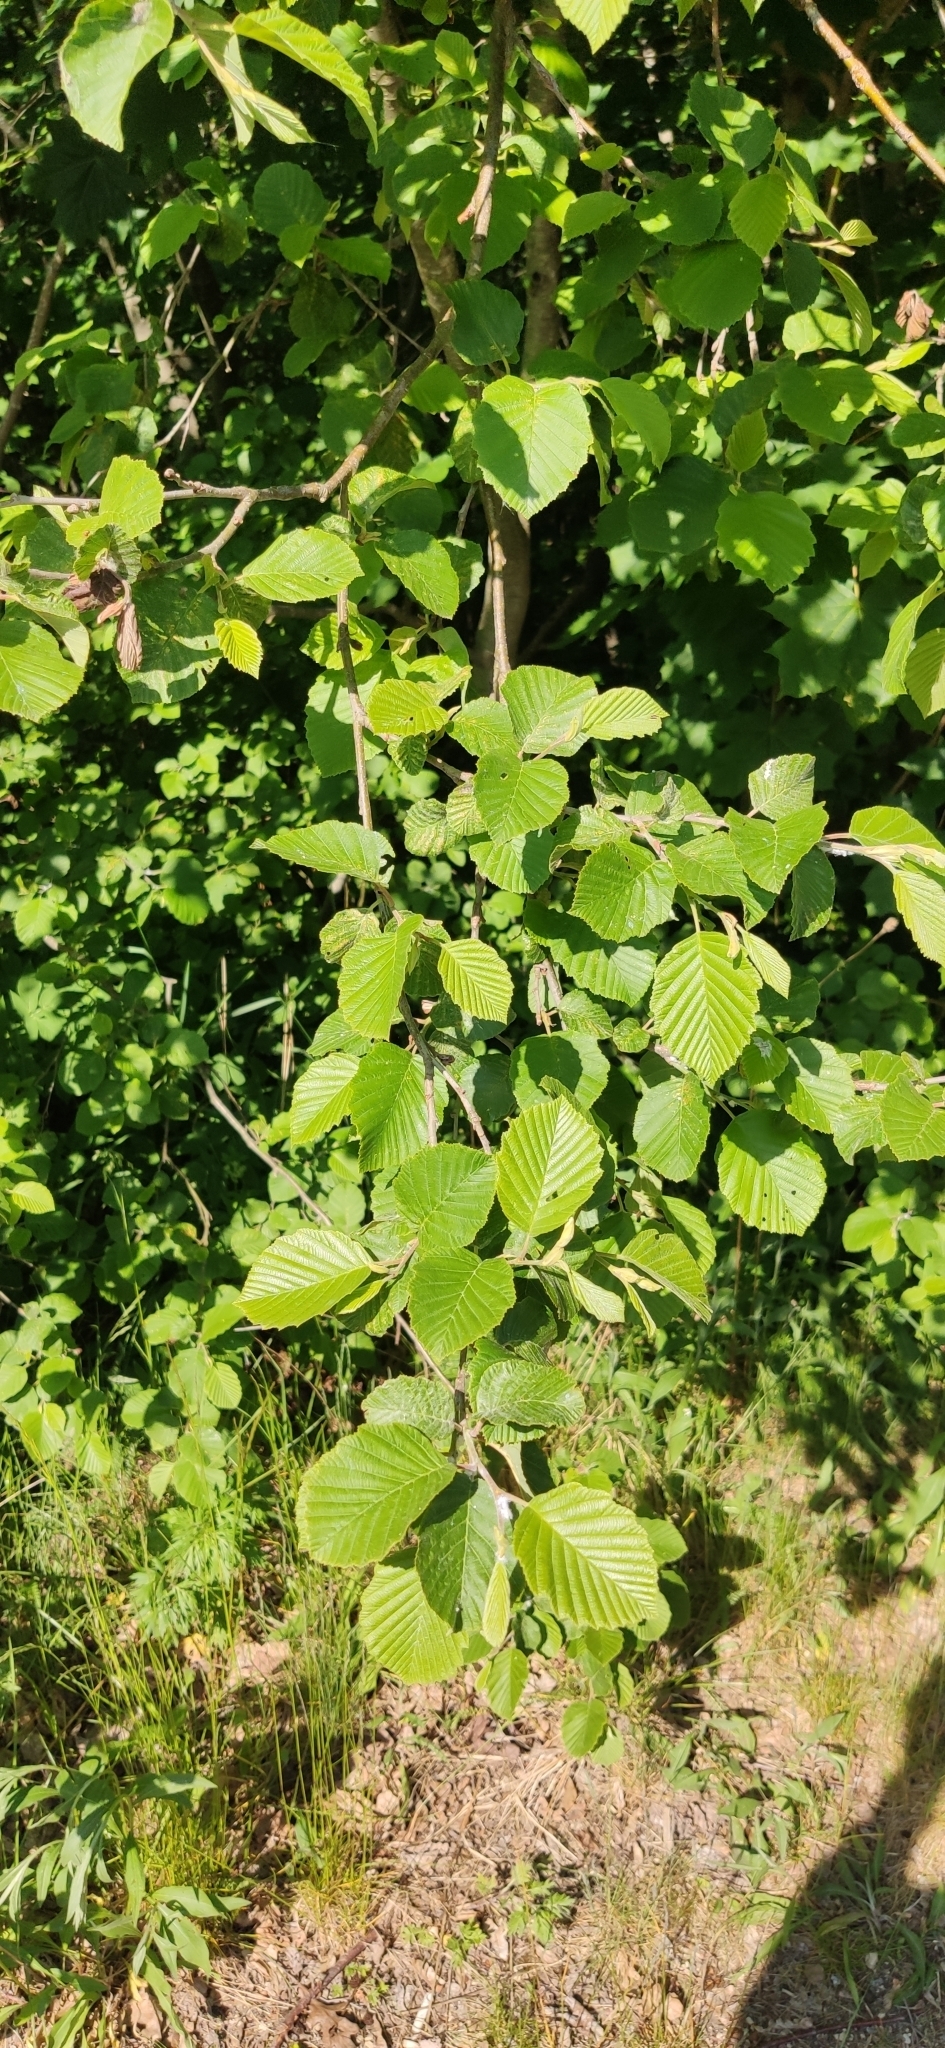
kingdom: Plantae
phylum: Tracheophyta
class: Magnoliopsida
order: Fagales
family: Betulaceae
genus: Alnus
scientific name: Alnus incana
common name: Grey alder
